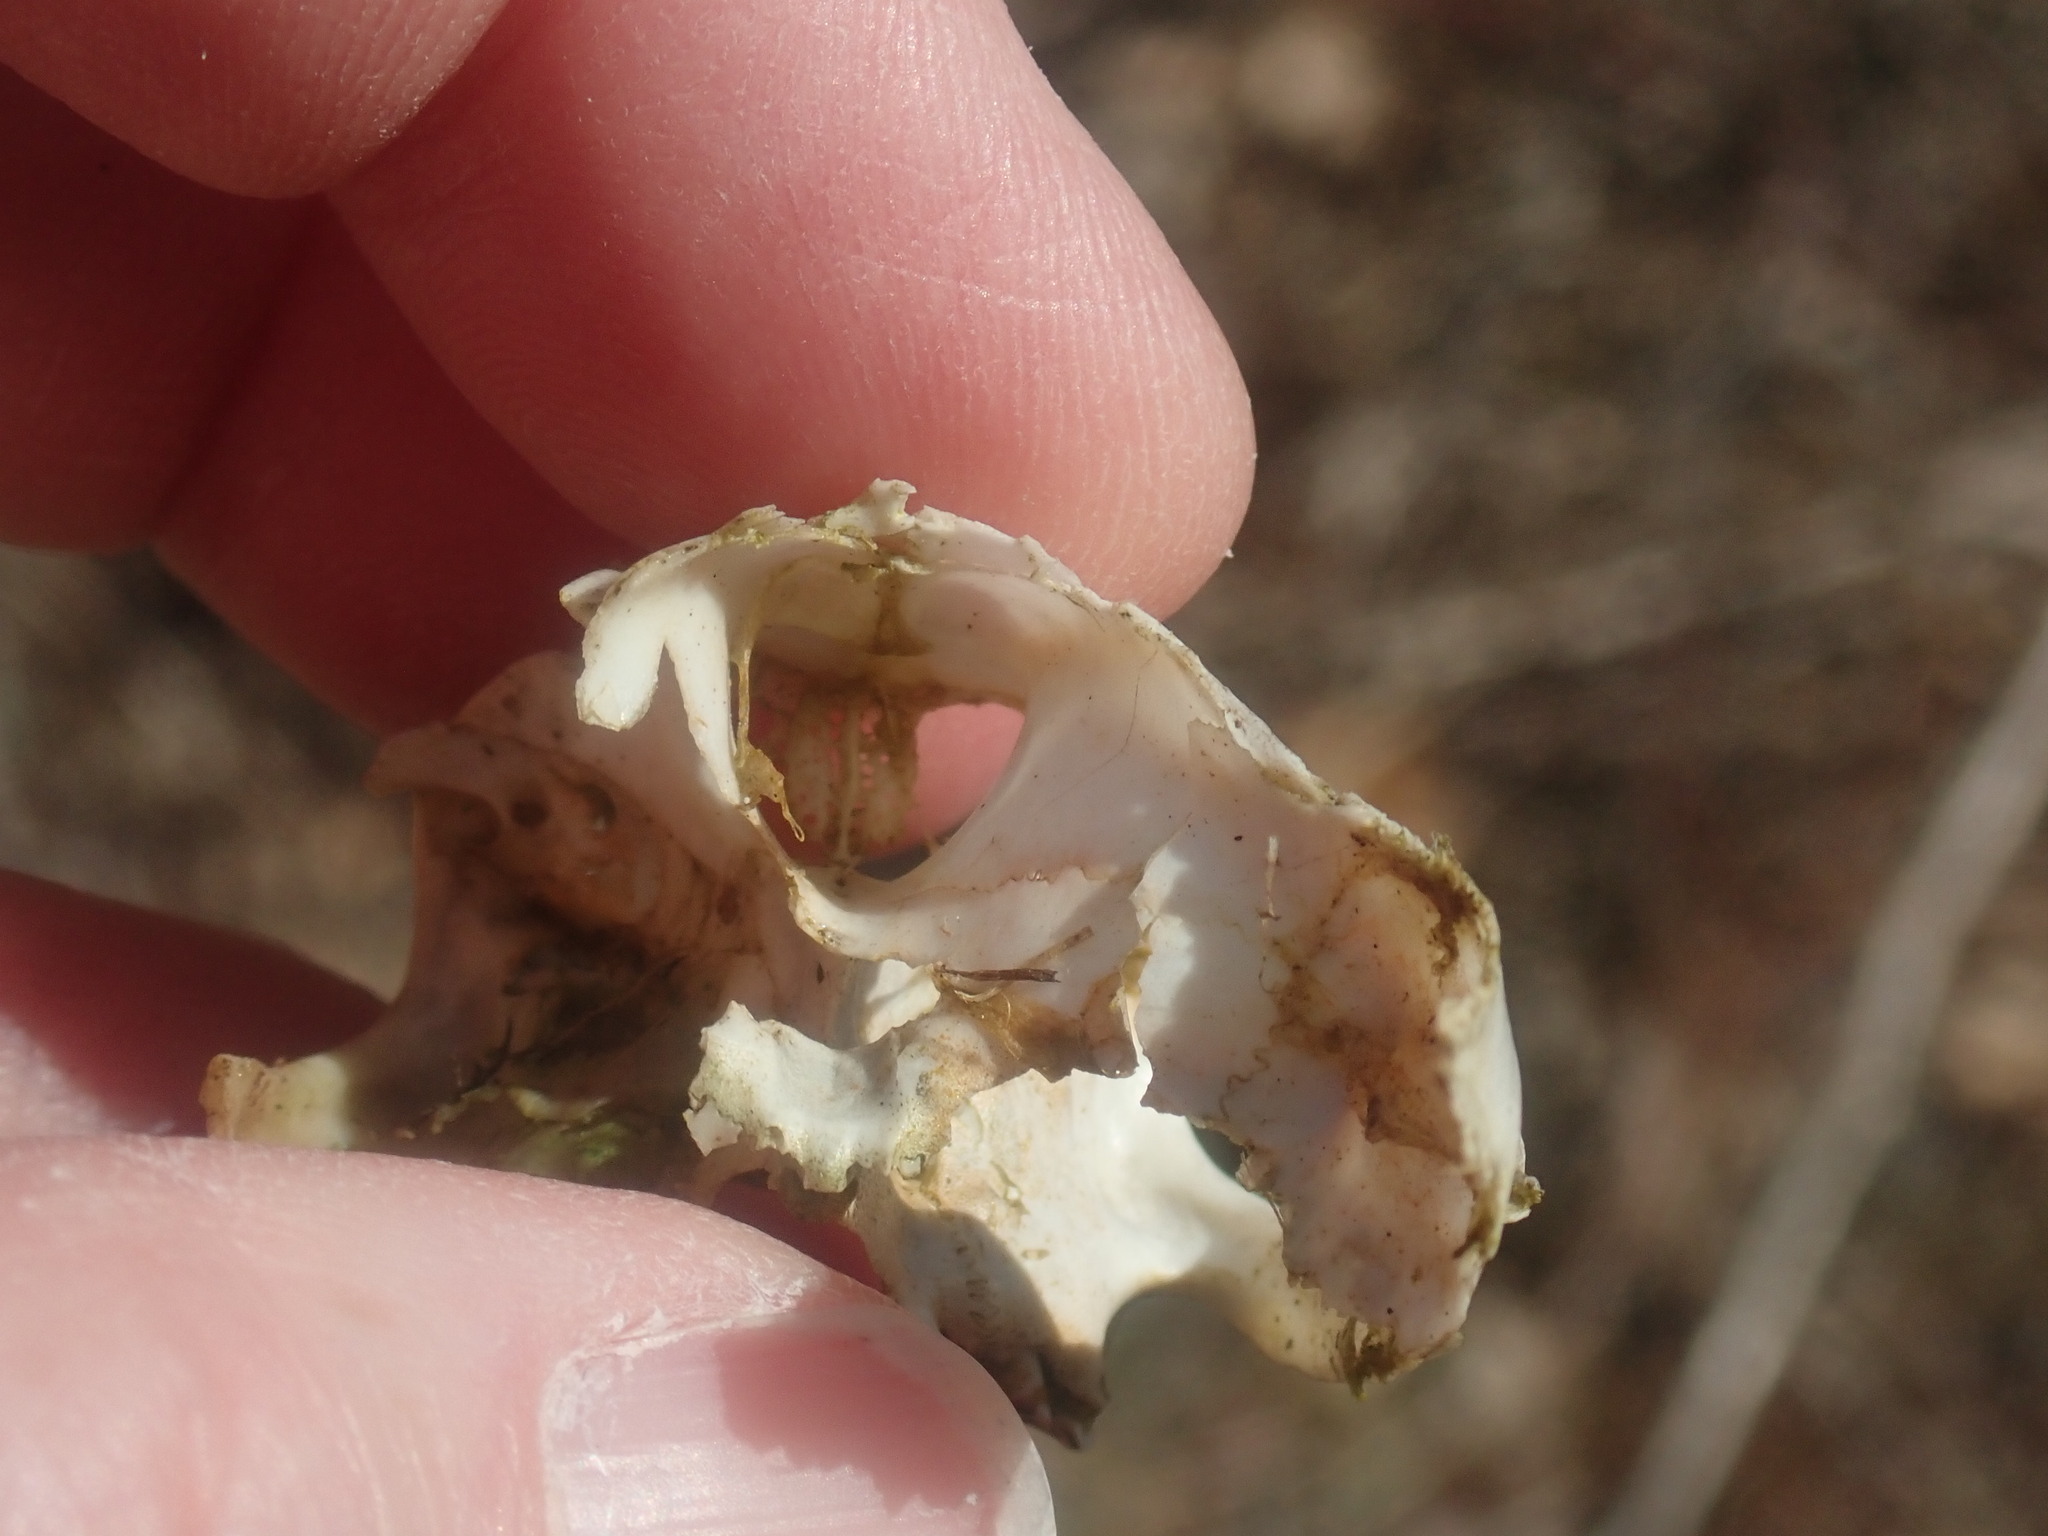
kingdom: Animalia
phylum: Chordata
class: Mammalia
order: Lagomorpha
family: Leporidae
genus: Sylvilagus
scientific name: Sylvilagus floridanus
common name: Eastern cottontail
